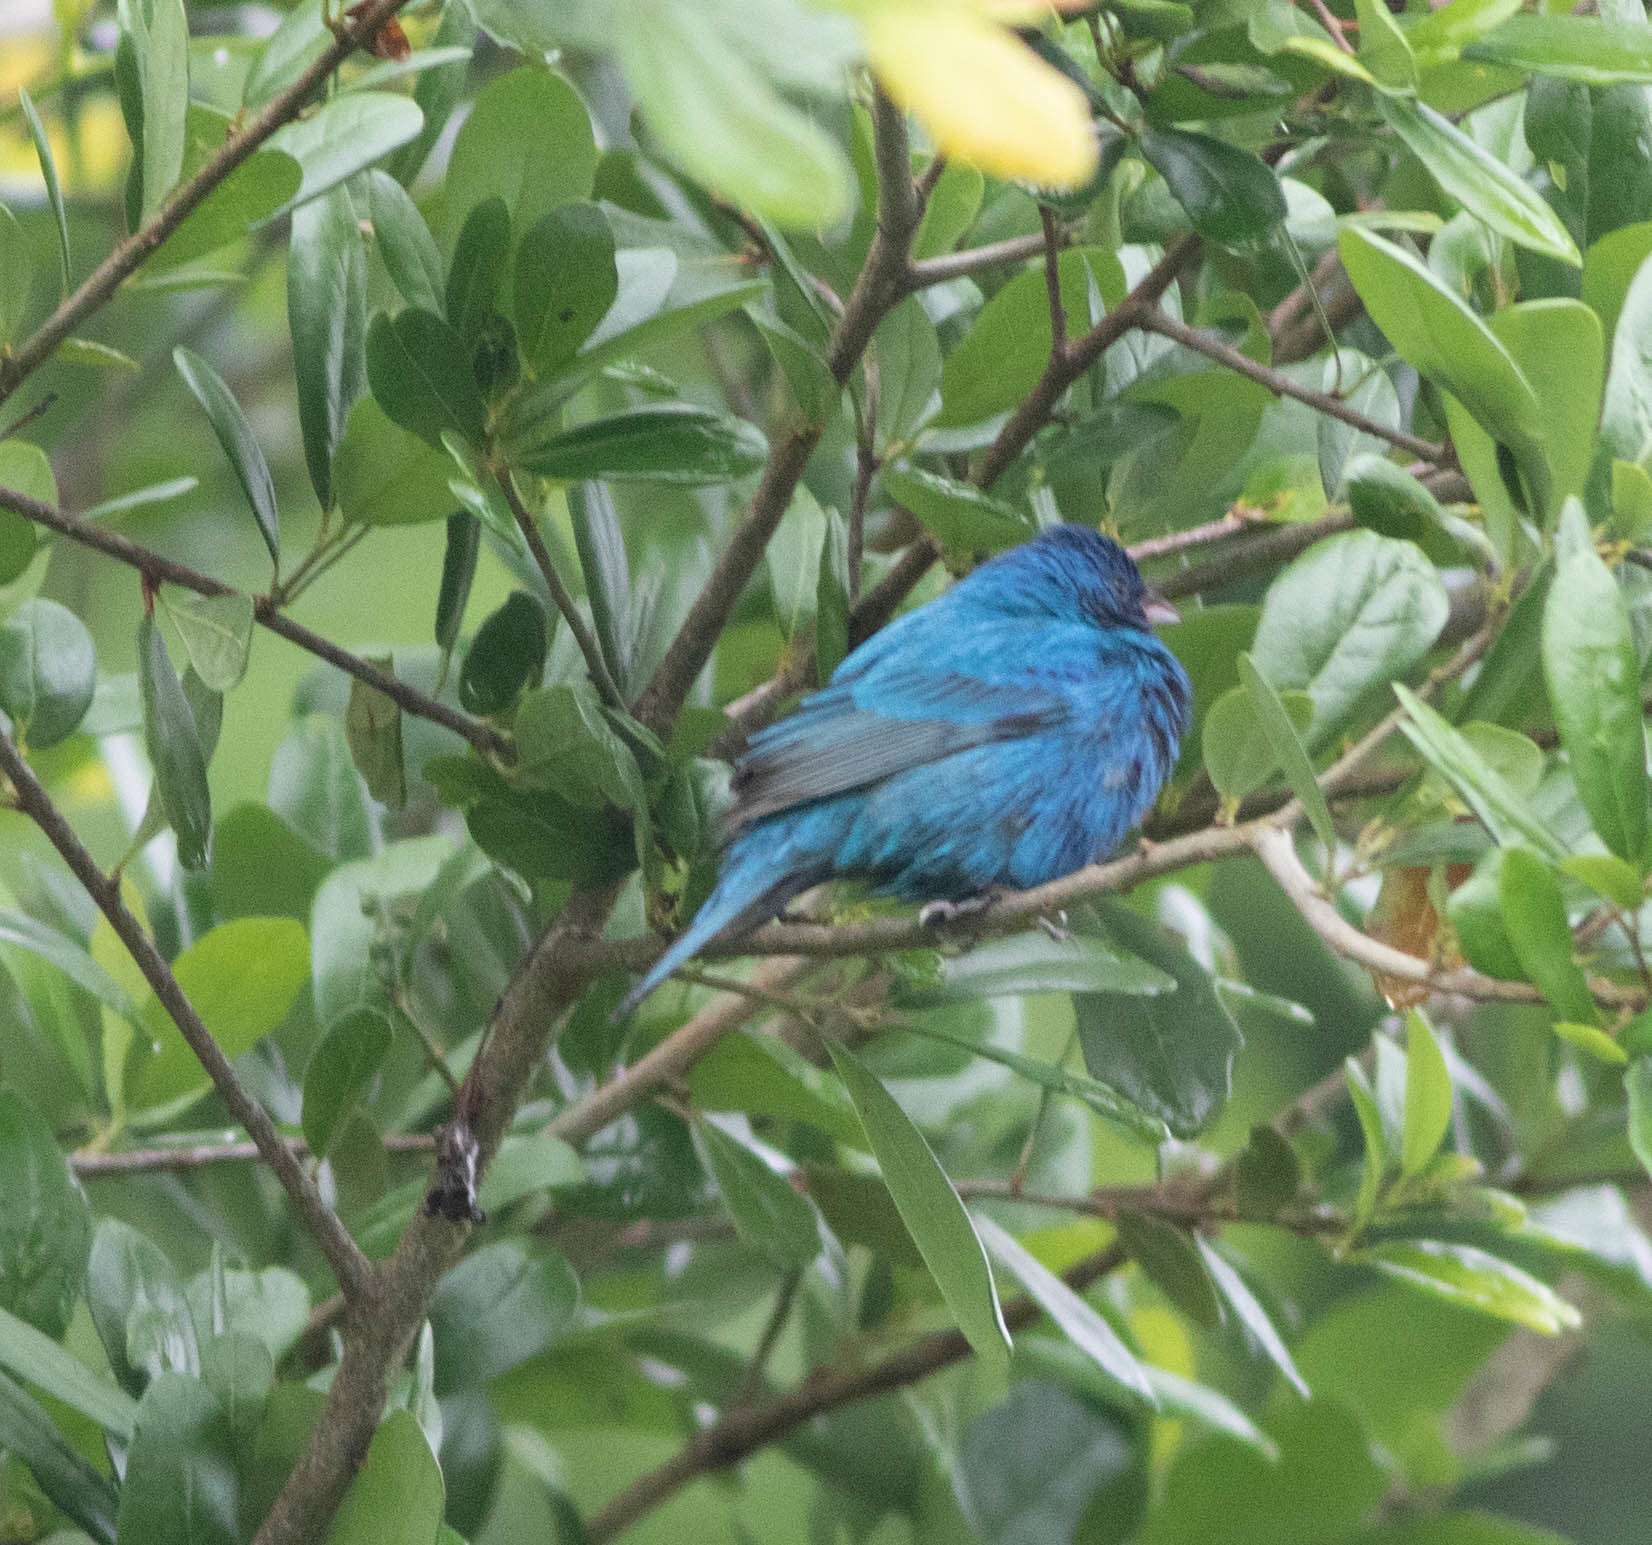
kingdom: Animalia
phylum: Chordata
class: Aves
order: Passeriformes
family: Cardinalidae
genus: Passerina
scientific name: Passerina cyanea
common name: Indigo bunting
